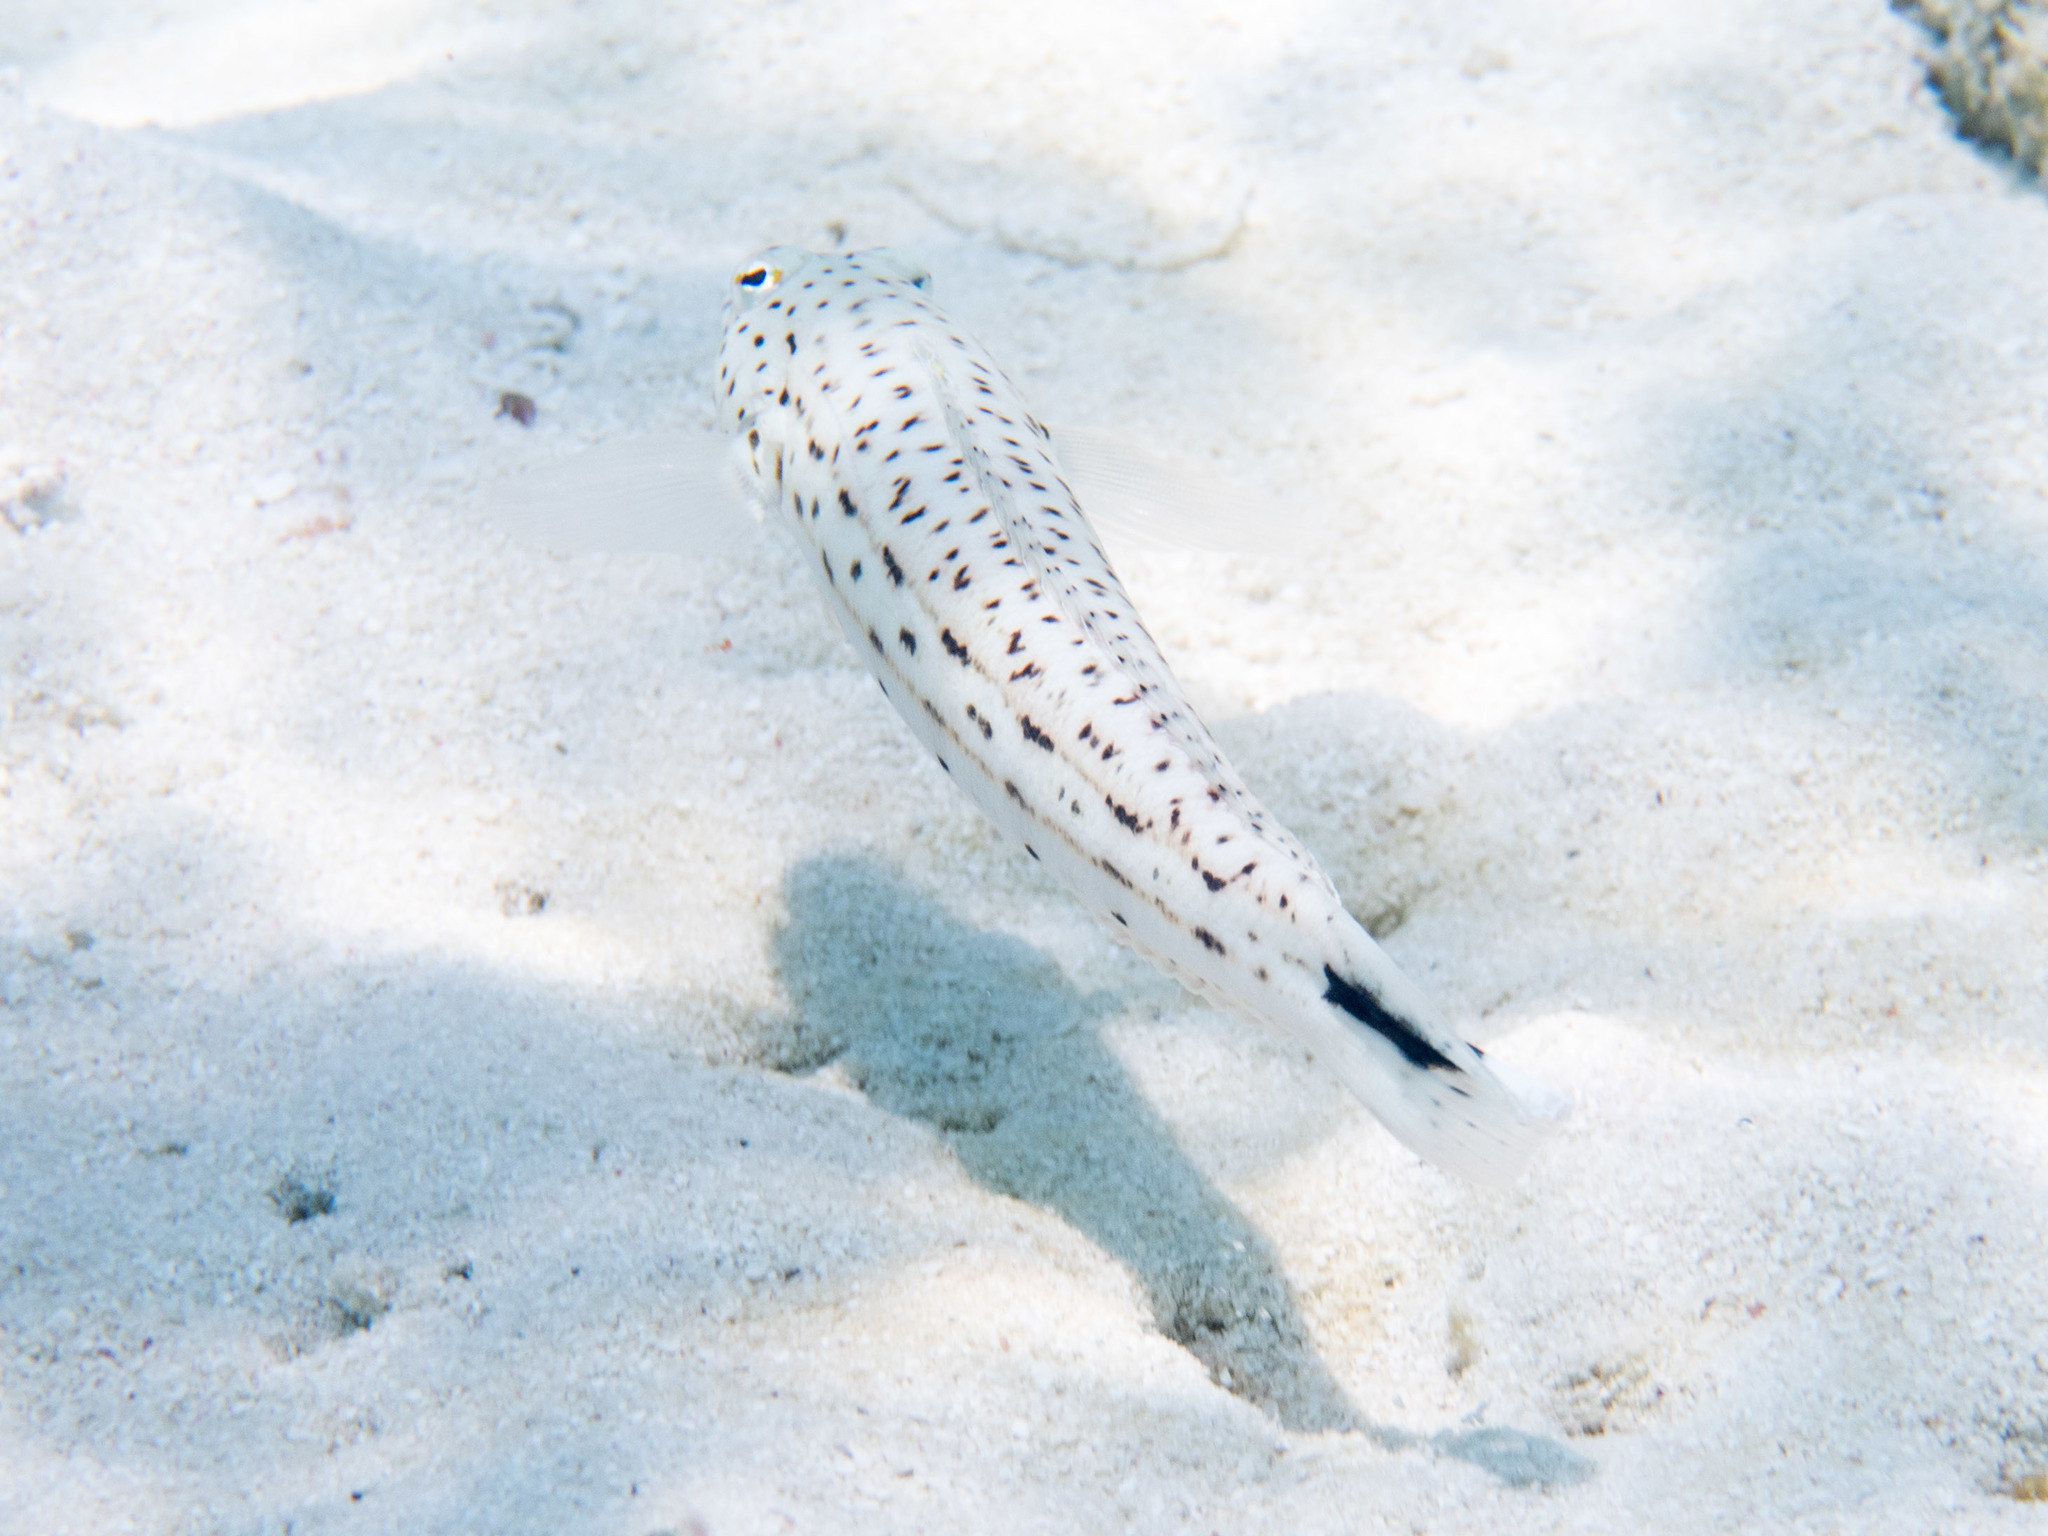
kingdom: Animalia
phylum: Chordata
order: Perciformes
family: Pinguipedidae
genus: Parapercis
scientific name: Parapercis hexophtalma
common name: Speckled sandperch
